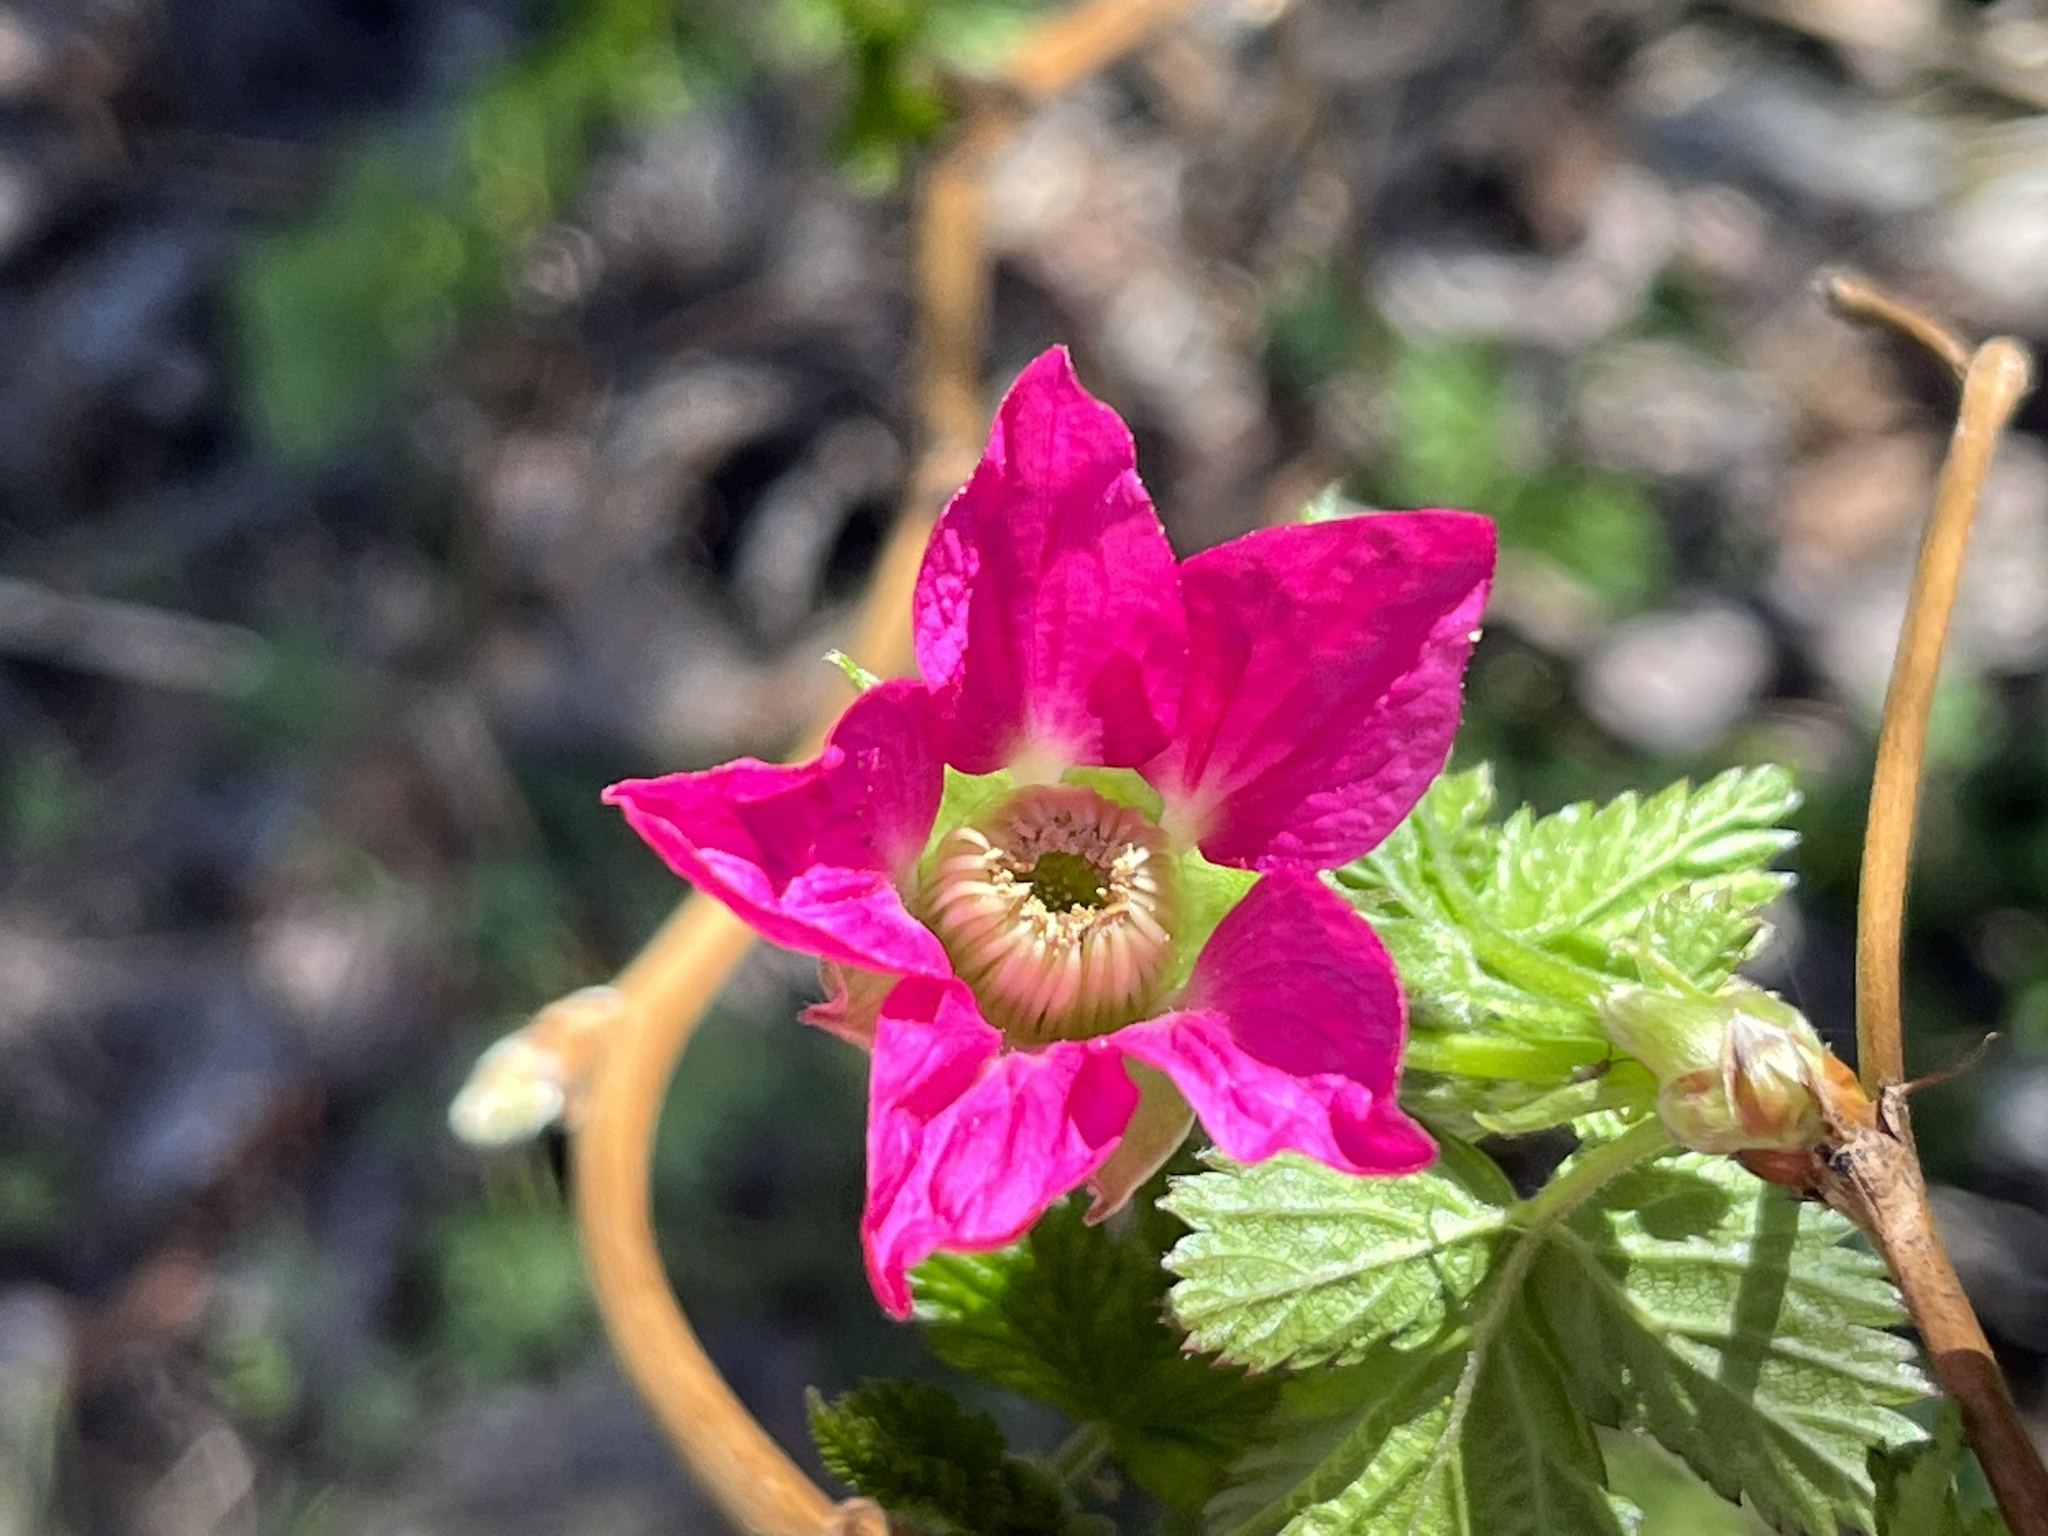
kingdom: Plantae
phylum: Tracheophyta
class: Magnoliopsida
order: Rosales
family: Rosaceae
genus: Rubus
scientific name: Rubus spectabilis
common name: Salmonberry
